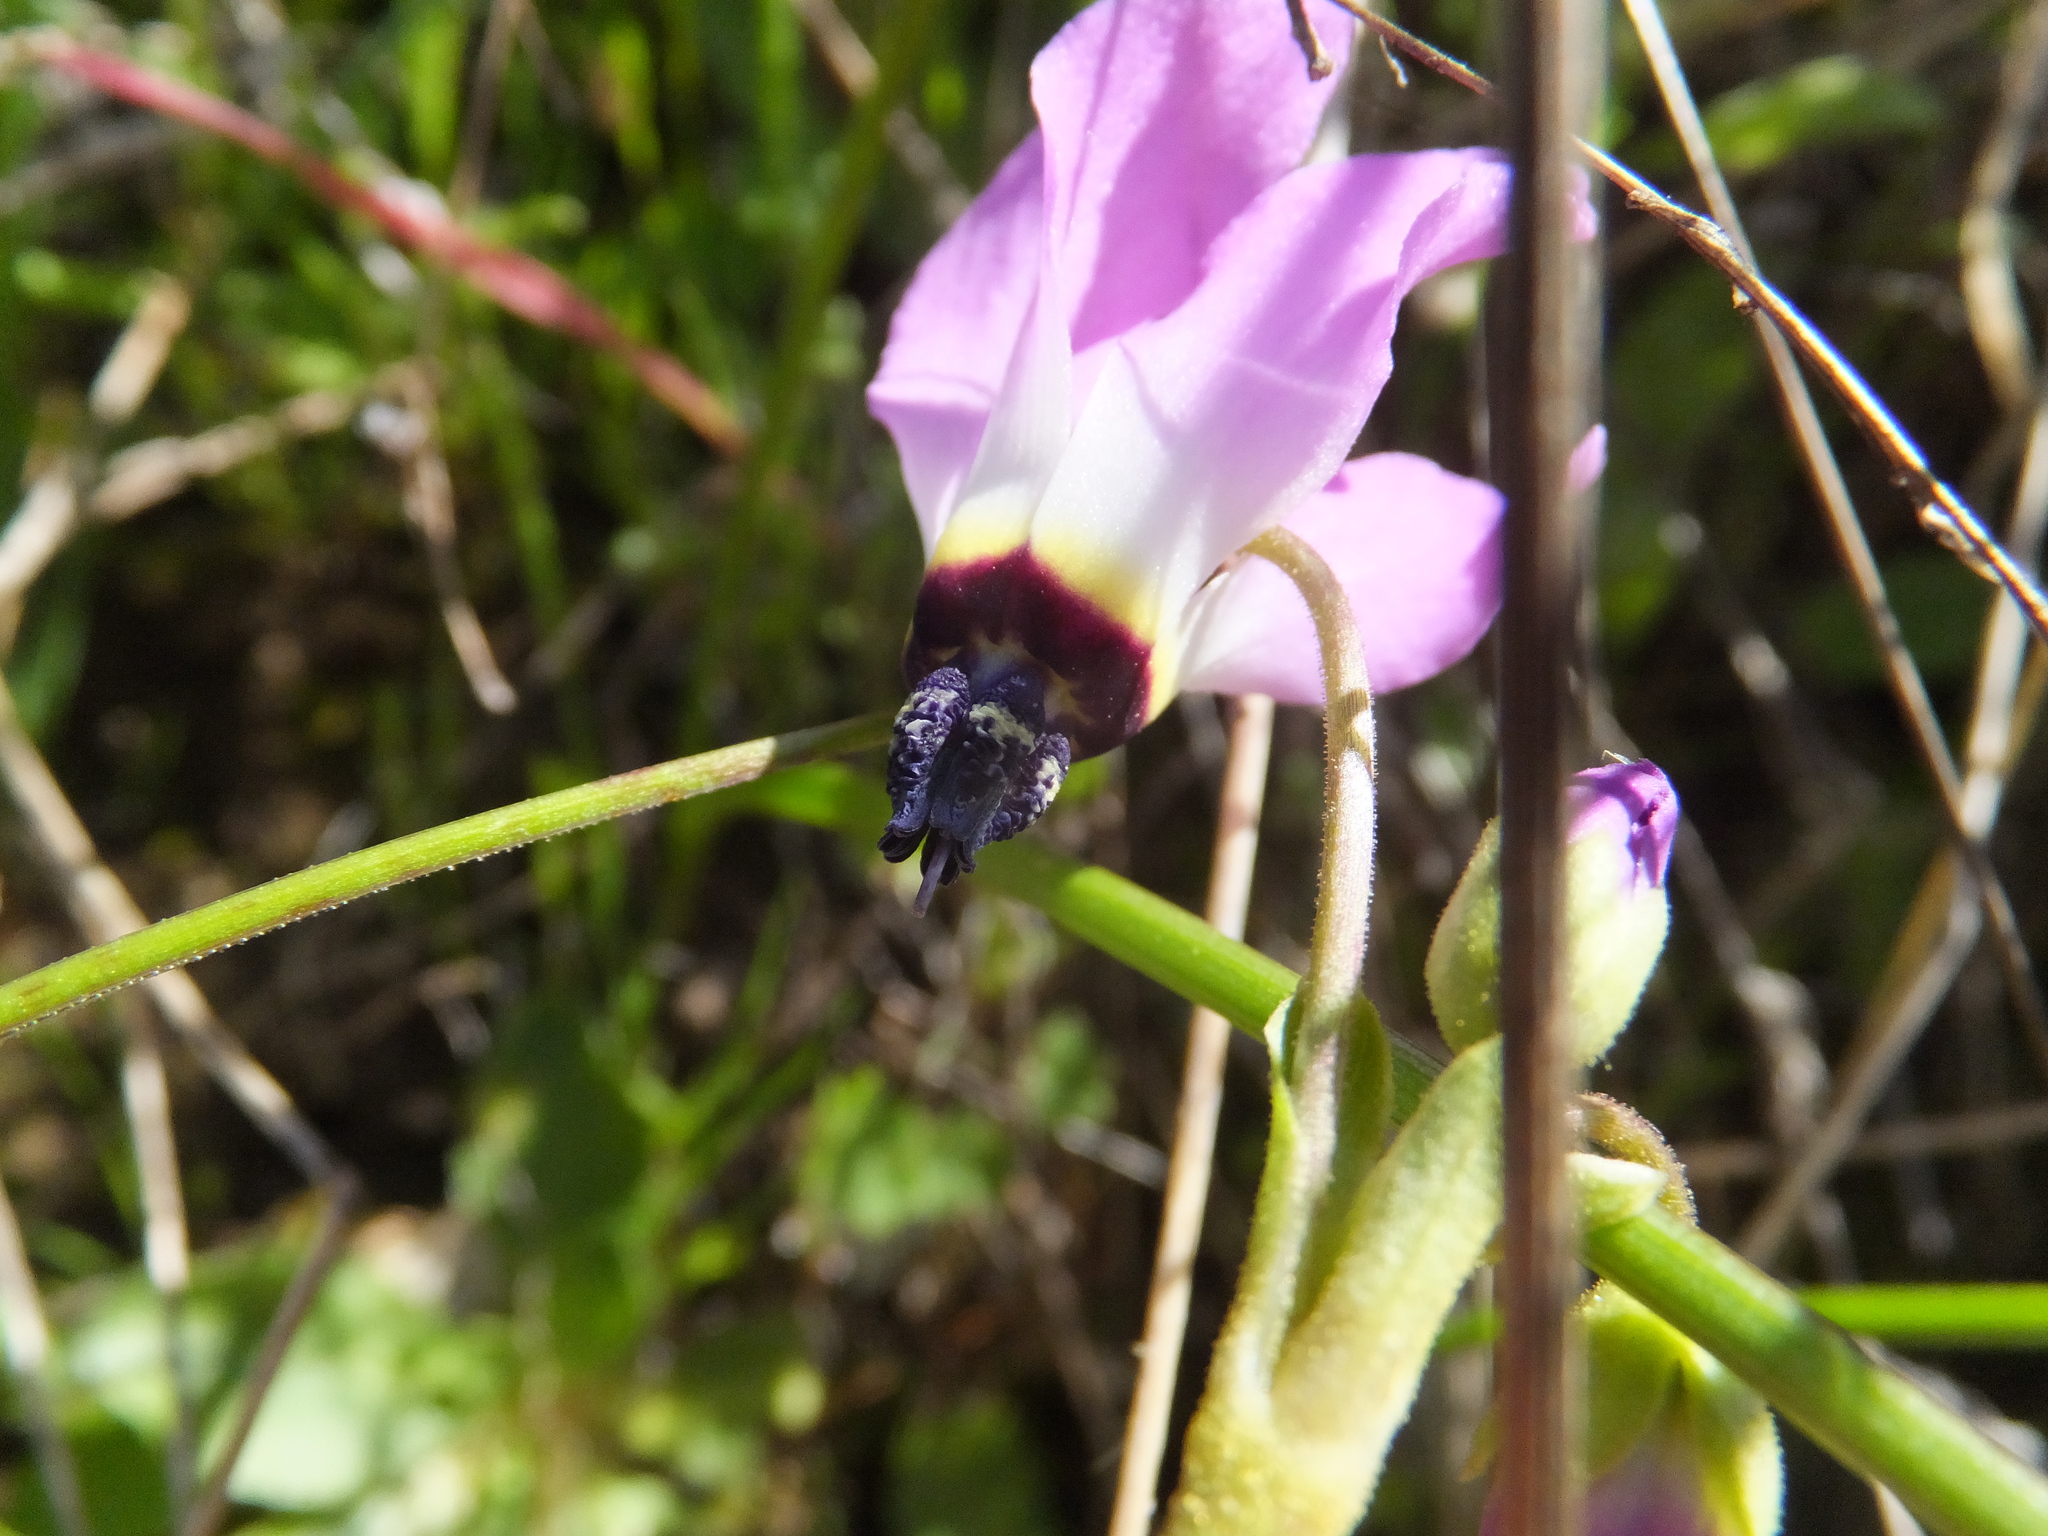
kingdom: Plantae
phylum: Tracheophyta
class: Magnoliopsida
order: Ericales
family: Primulaceae
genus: Dodecatheon
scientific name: Dodecatheon clevelandii
